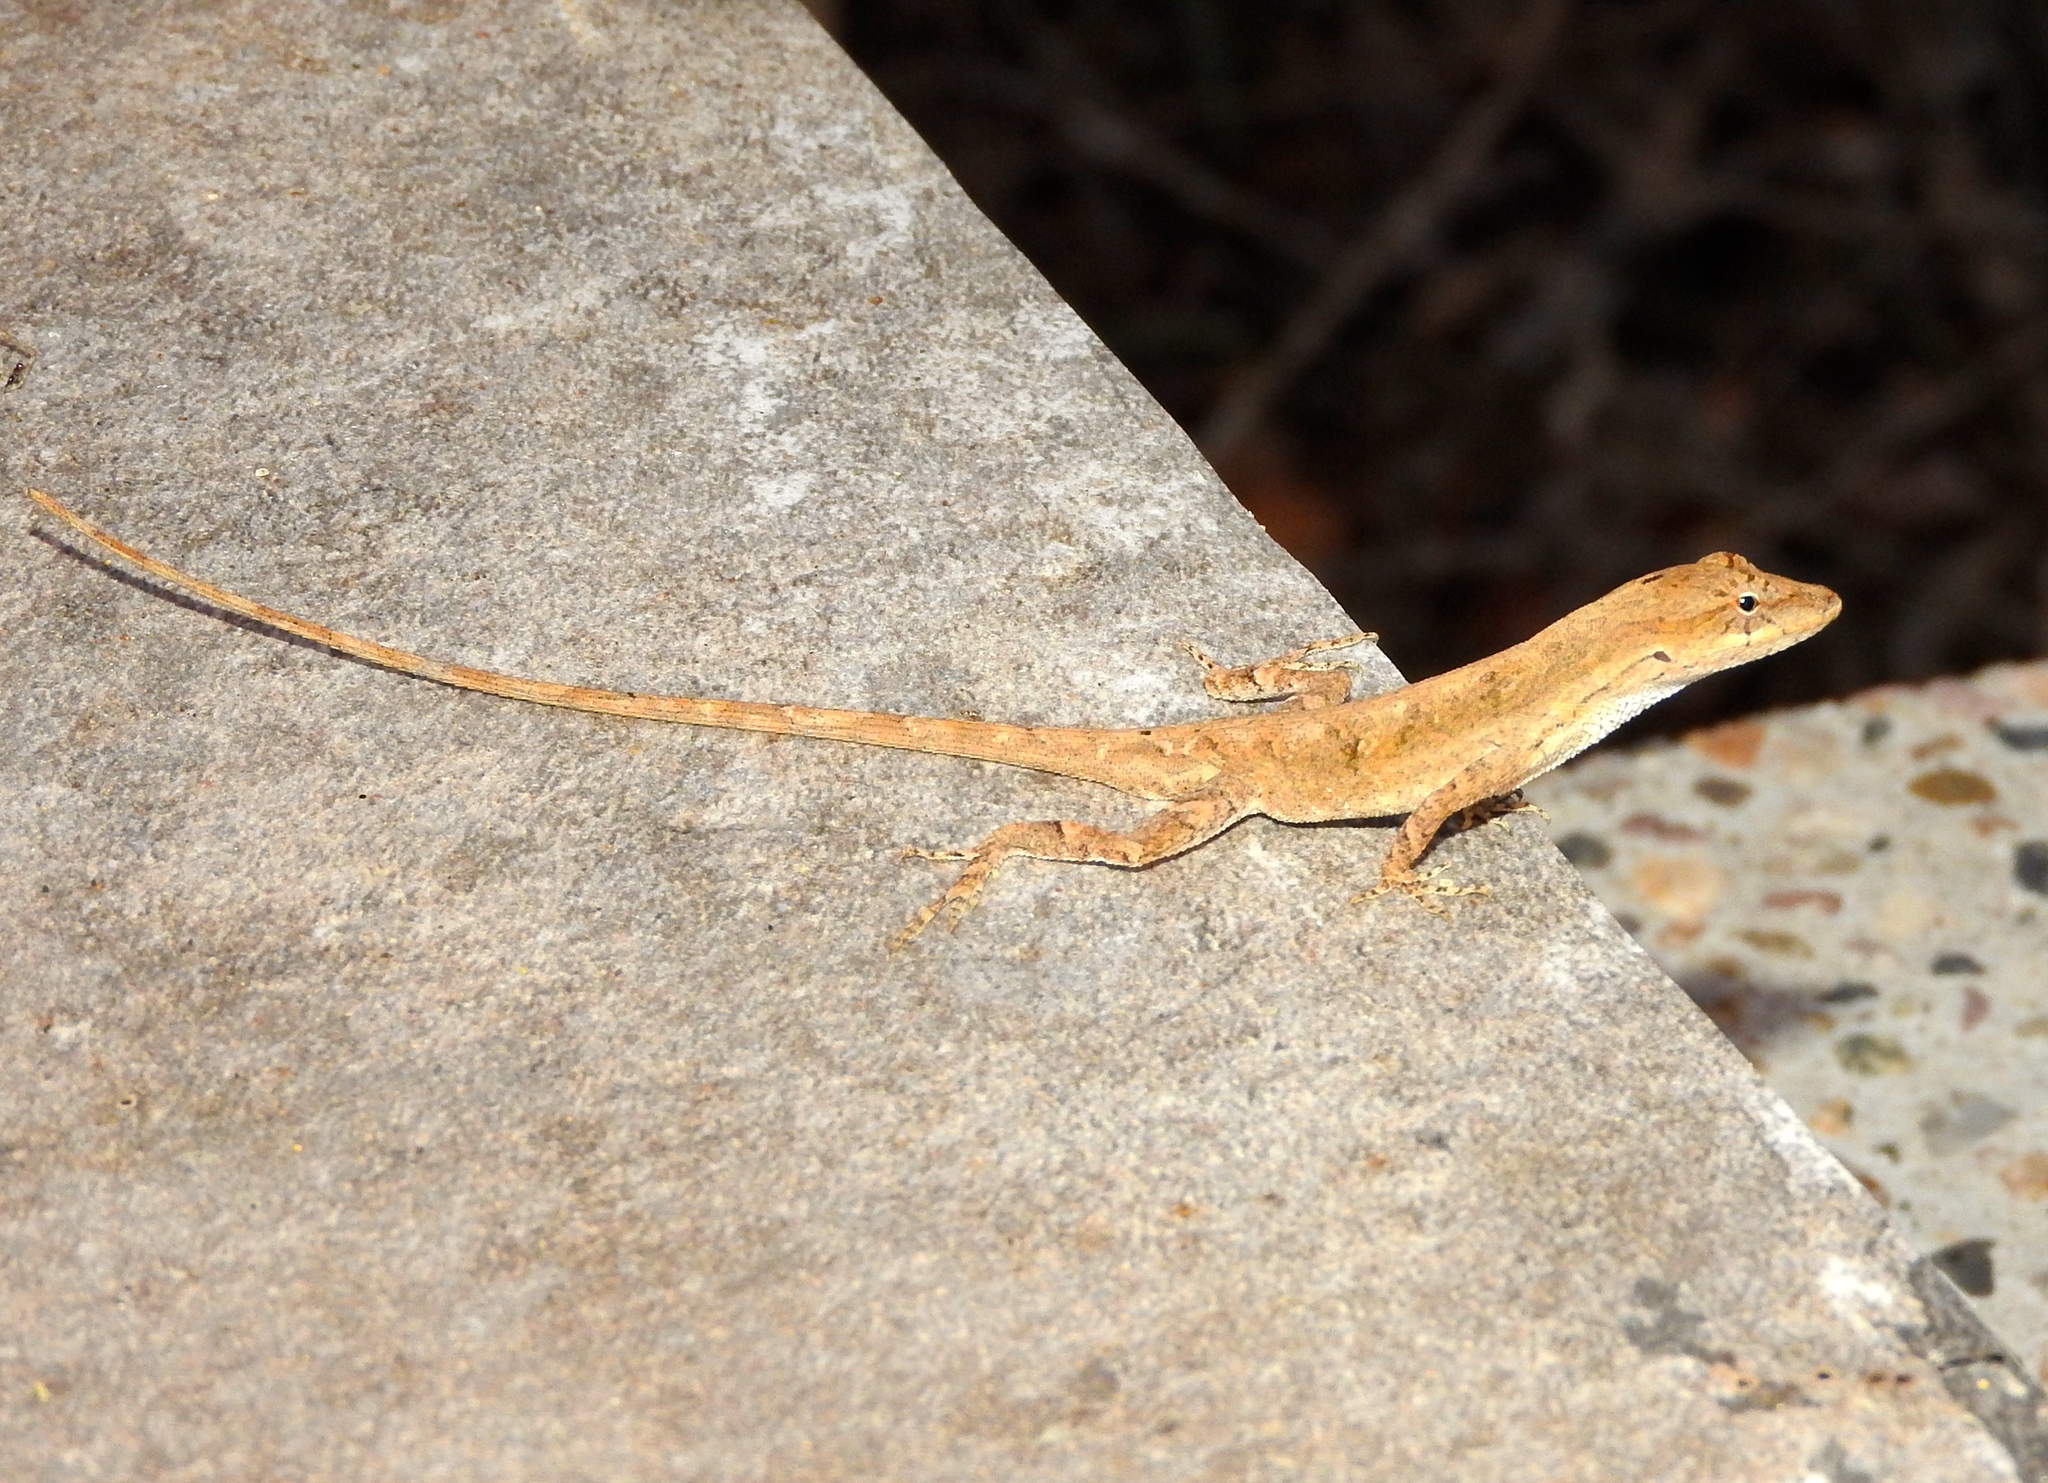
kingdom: Animalia
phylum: Chordata
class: Squamata
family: Dactyloidae
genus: Anolis
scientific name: Anolis nebulosus
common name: Clouded anole
